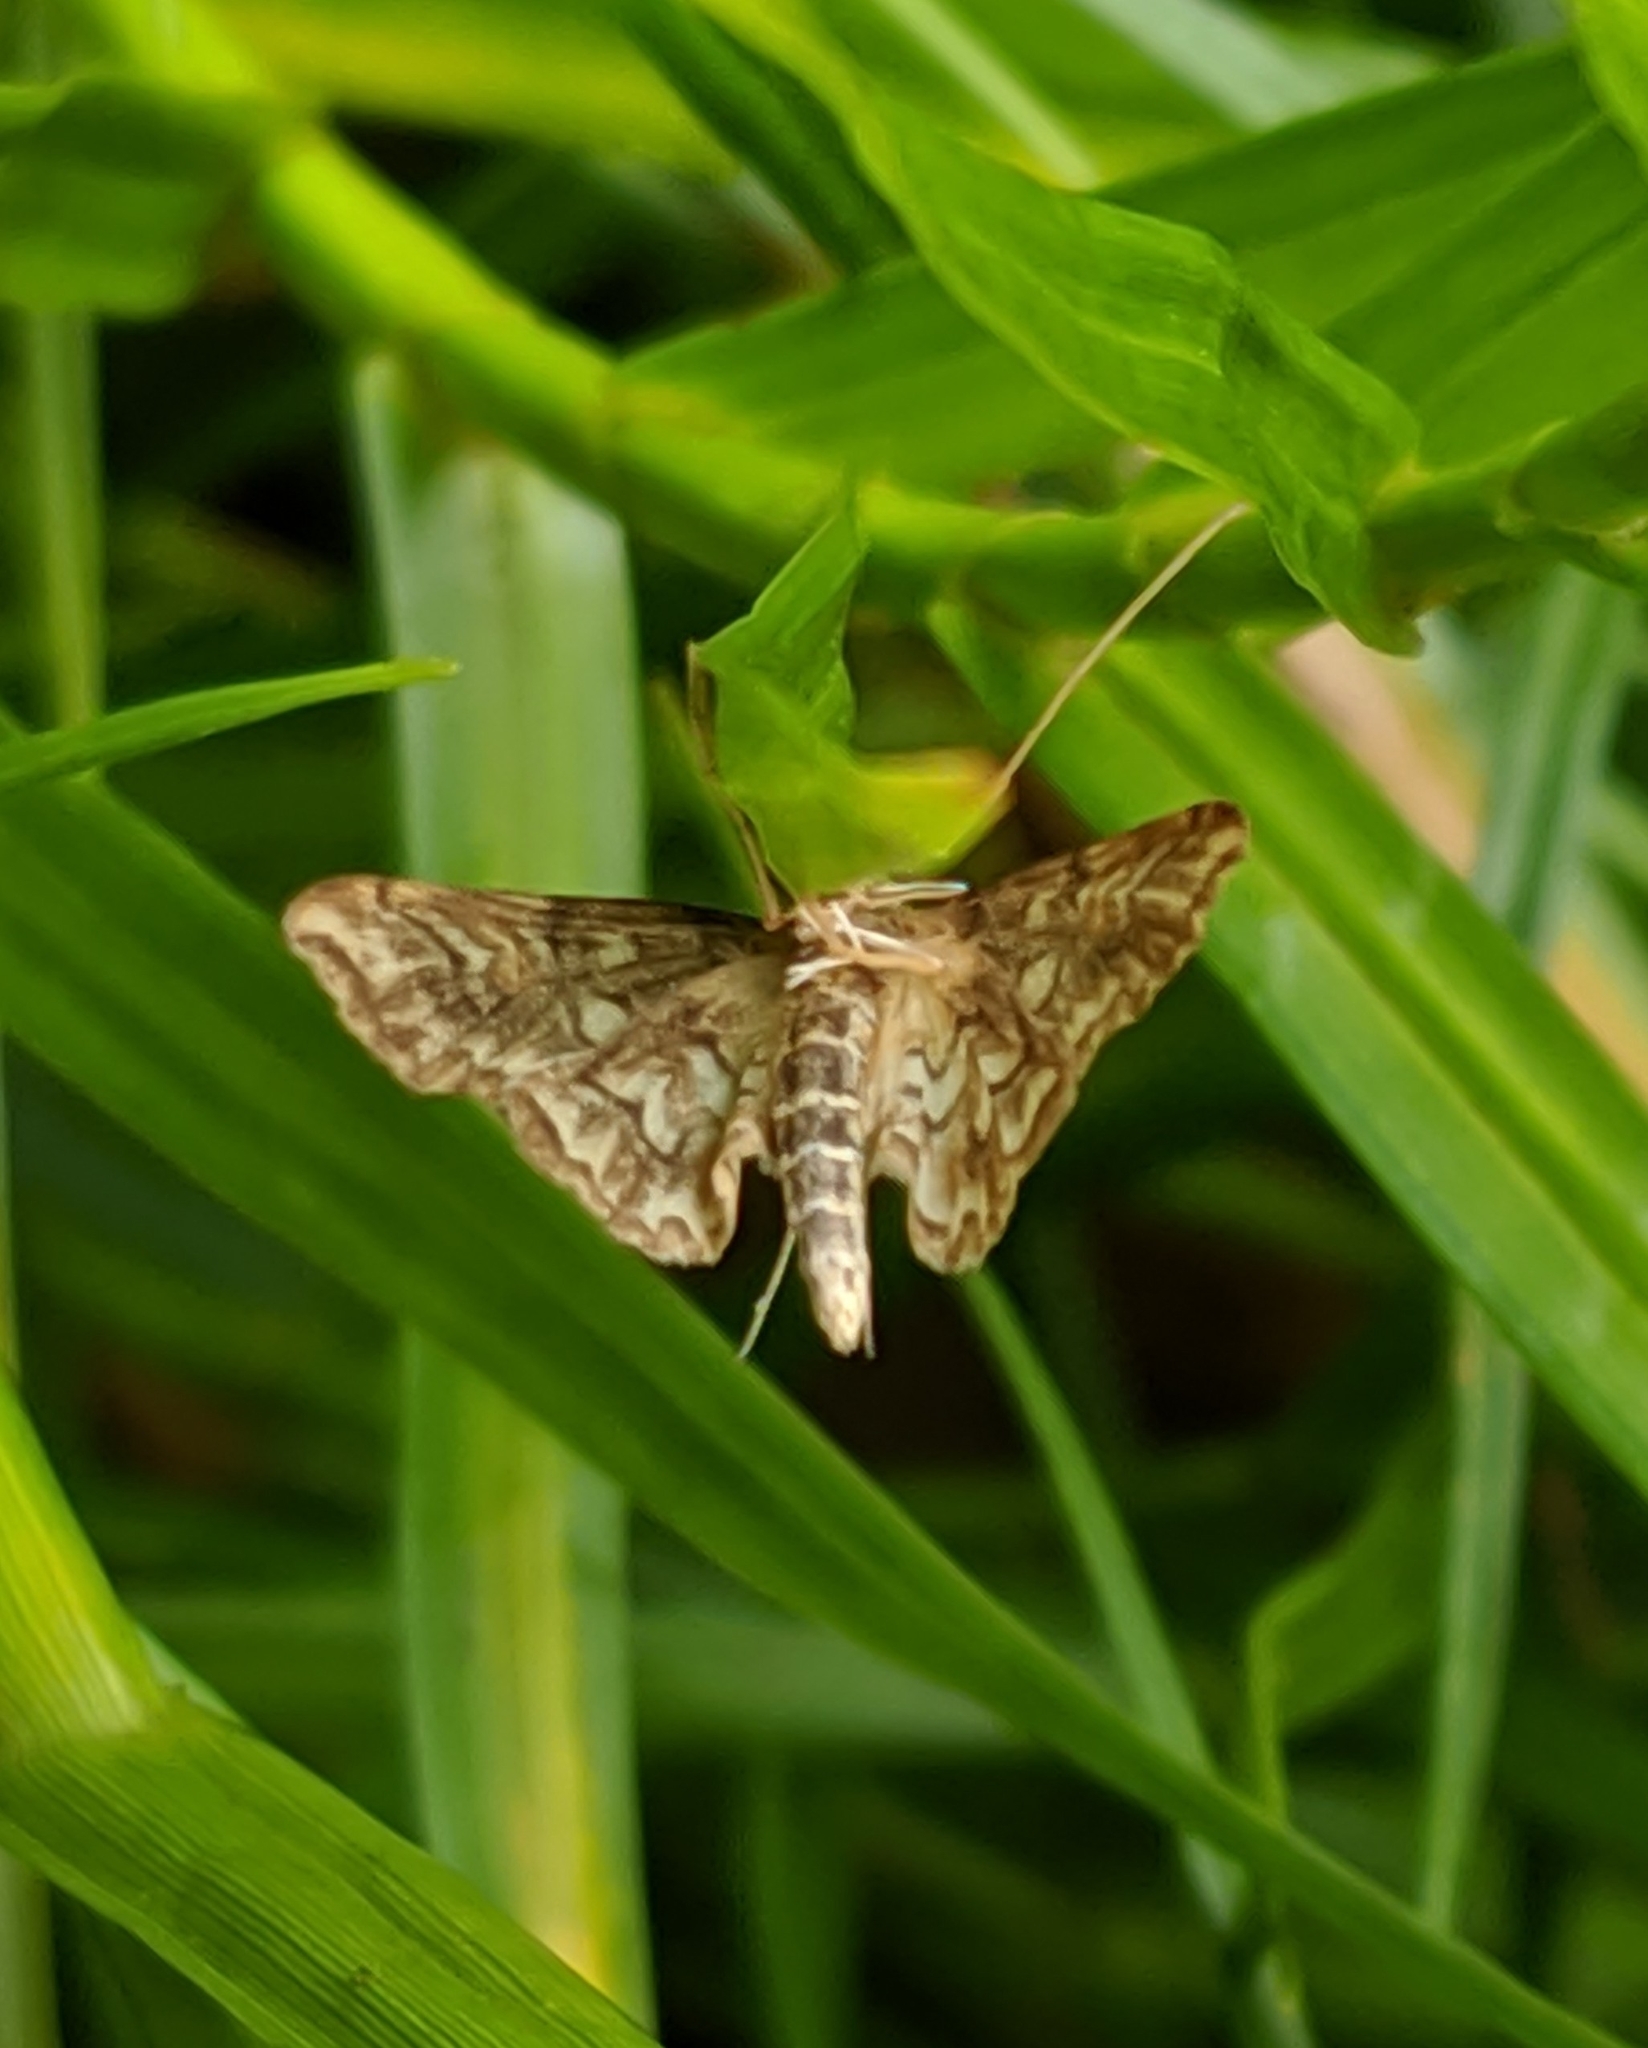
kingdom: Animalia
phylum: Arthropoda
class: Insecta
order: Lepidoptera
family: Crambidae
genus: Elophila
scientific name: Elophila icciusalis
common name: Pondside pyralid moth
